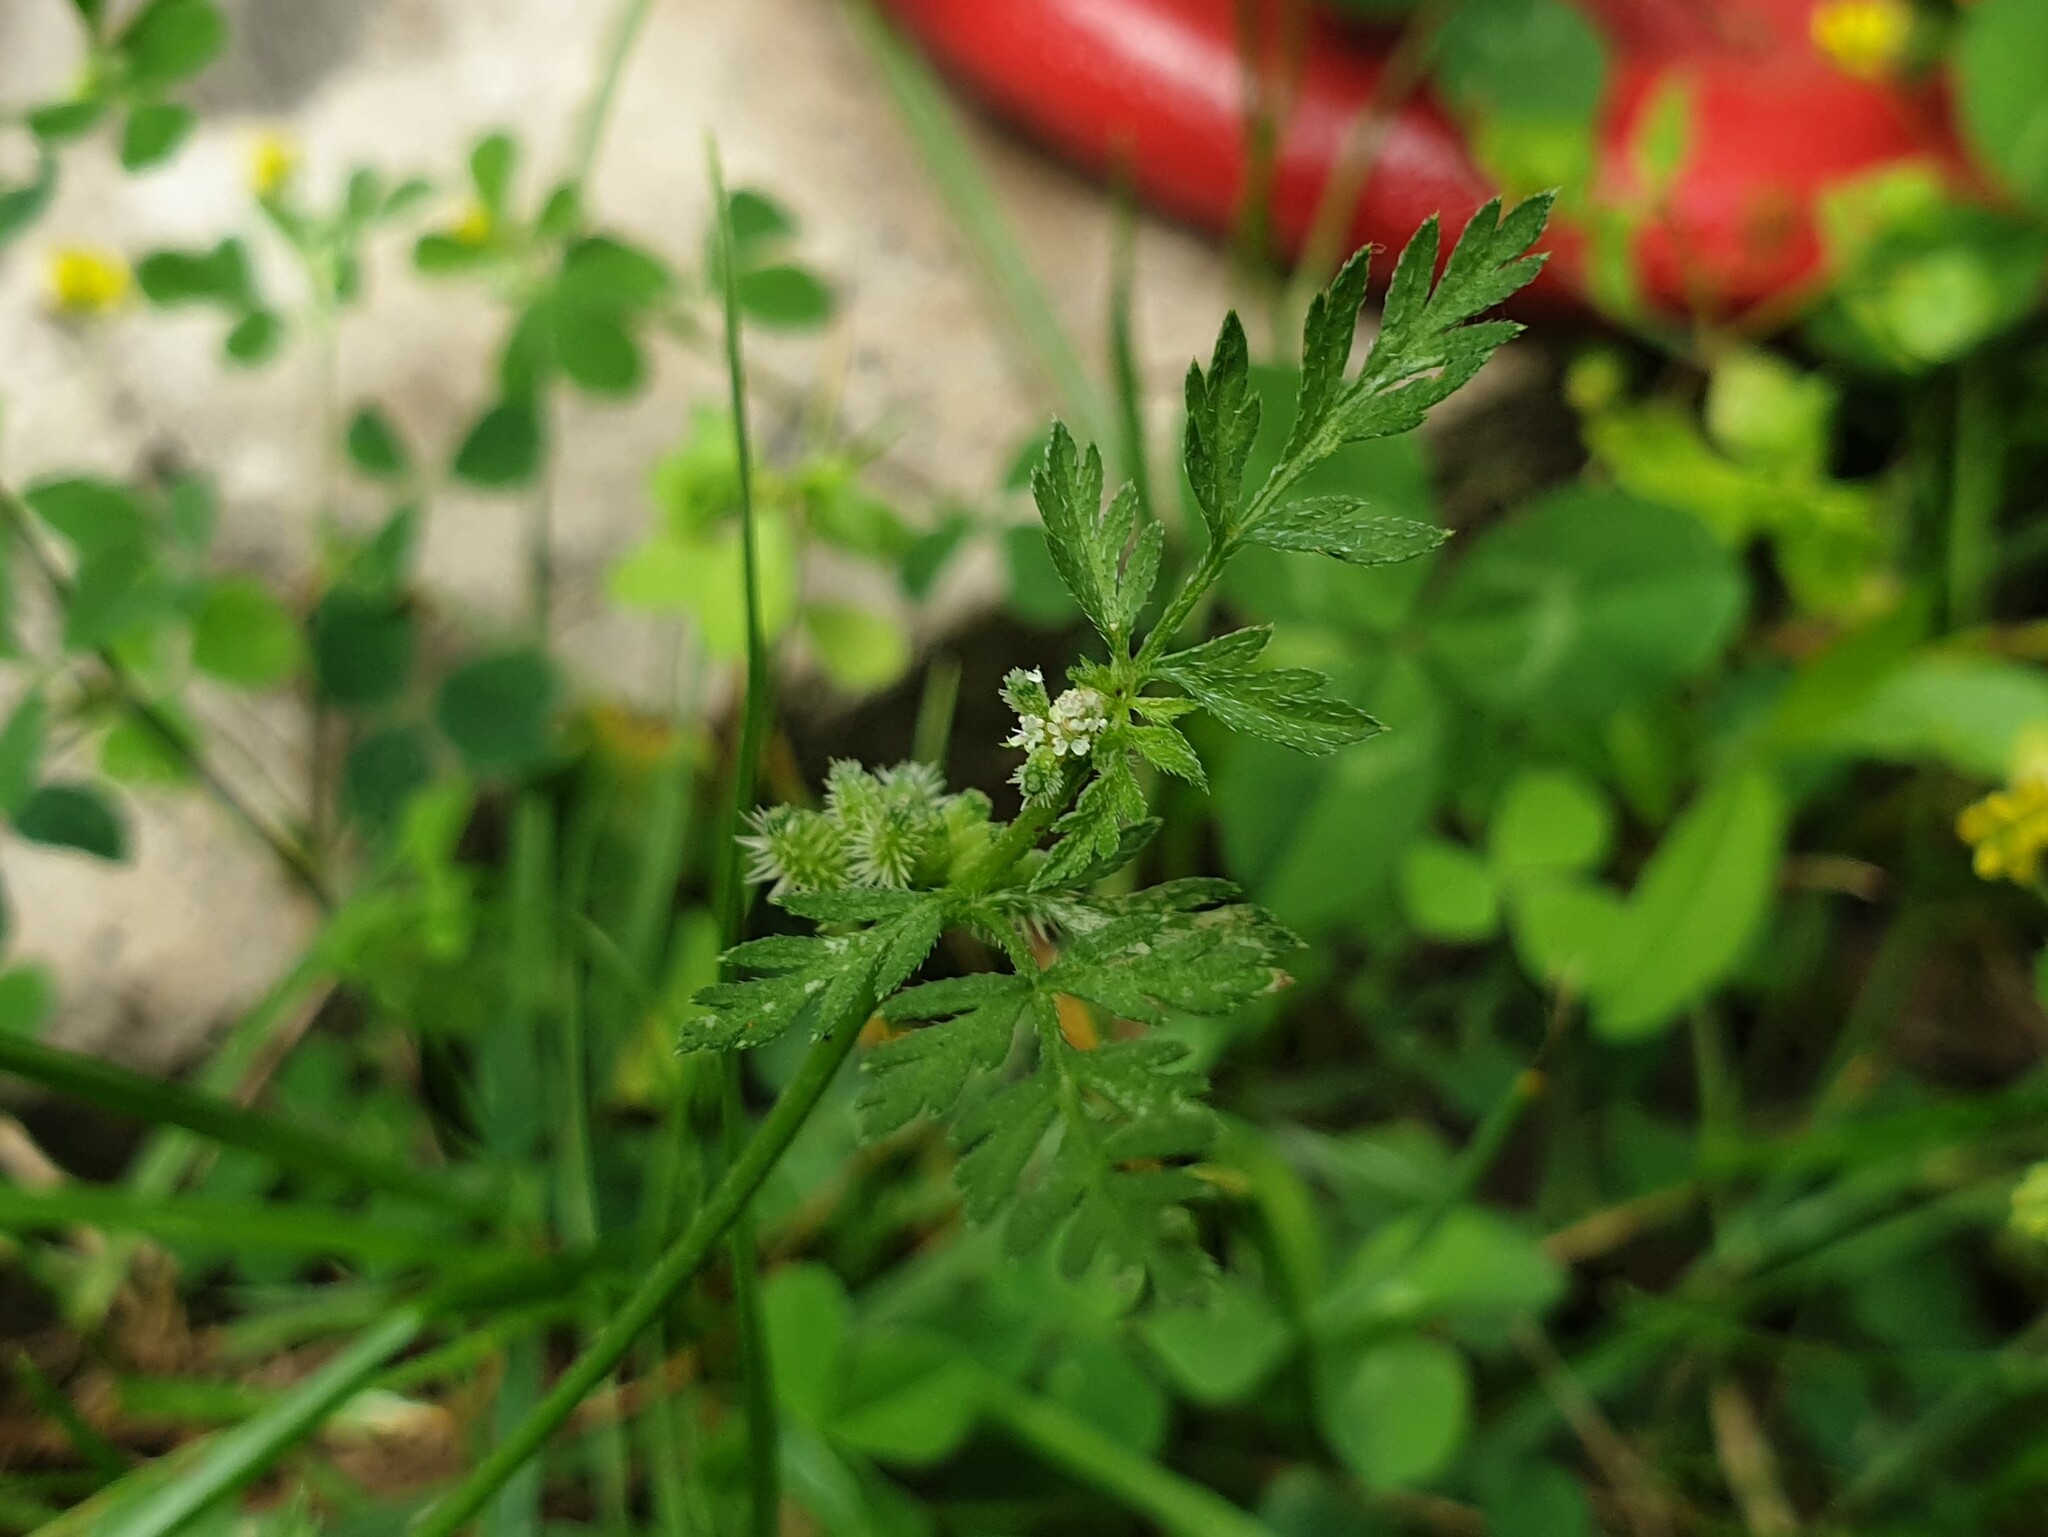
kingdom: Plantae
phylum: Tracheophyta
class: Magnoliopsida
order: Apiales
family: Apiaceae
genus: Torilis
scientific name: Torilis nodosa
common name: Knotted hedge-parsley
